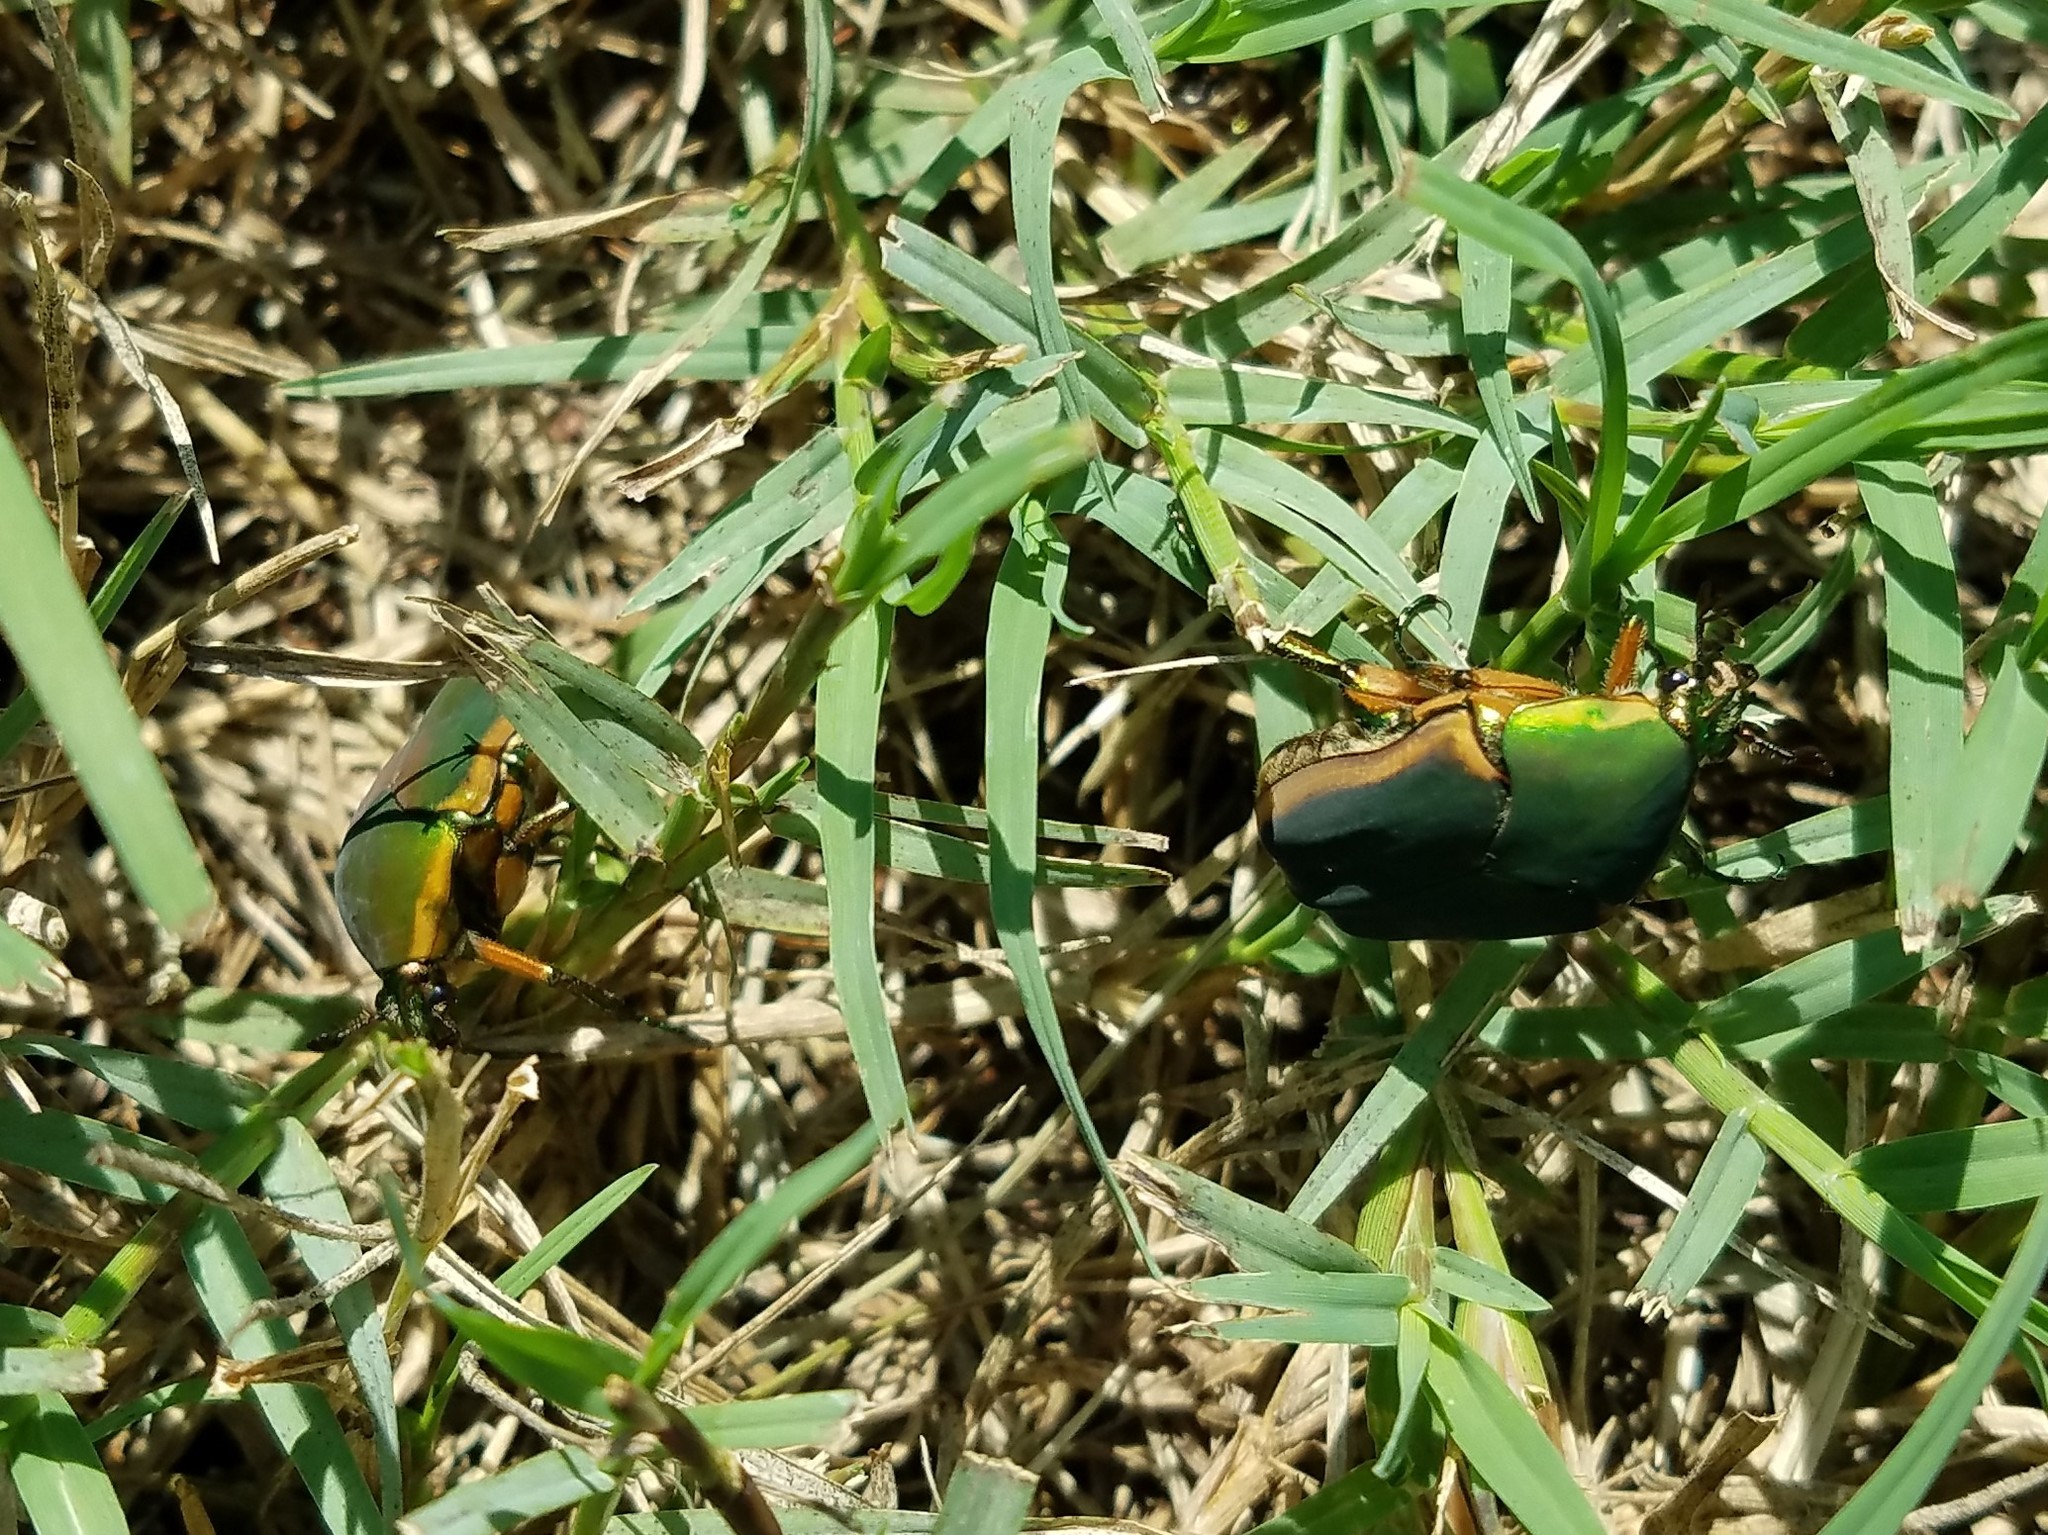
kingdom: Animalia
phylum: Arthropoda
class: Insecta
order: Coleoptera
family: Scarabaeidae
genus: Cotinis
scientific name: Cotinis nitida
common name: Common green june beetle
